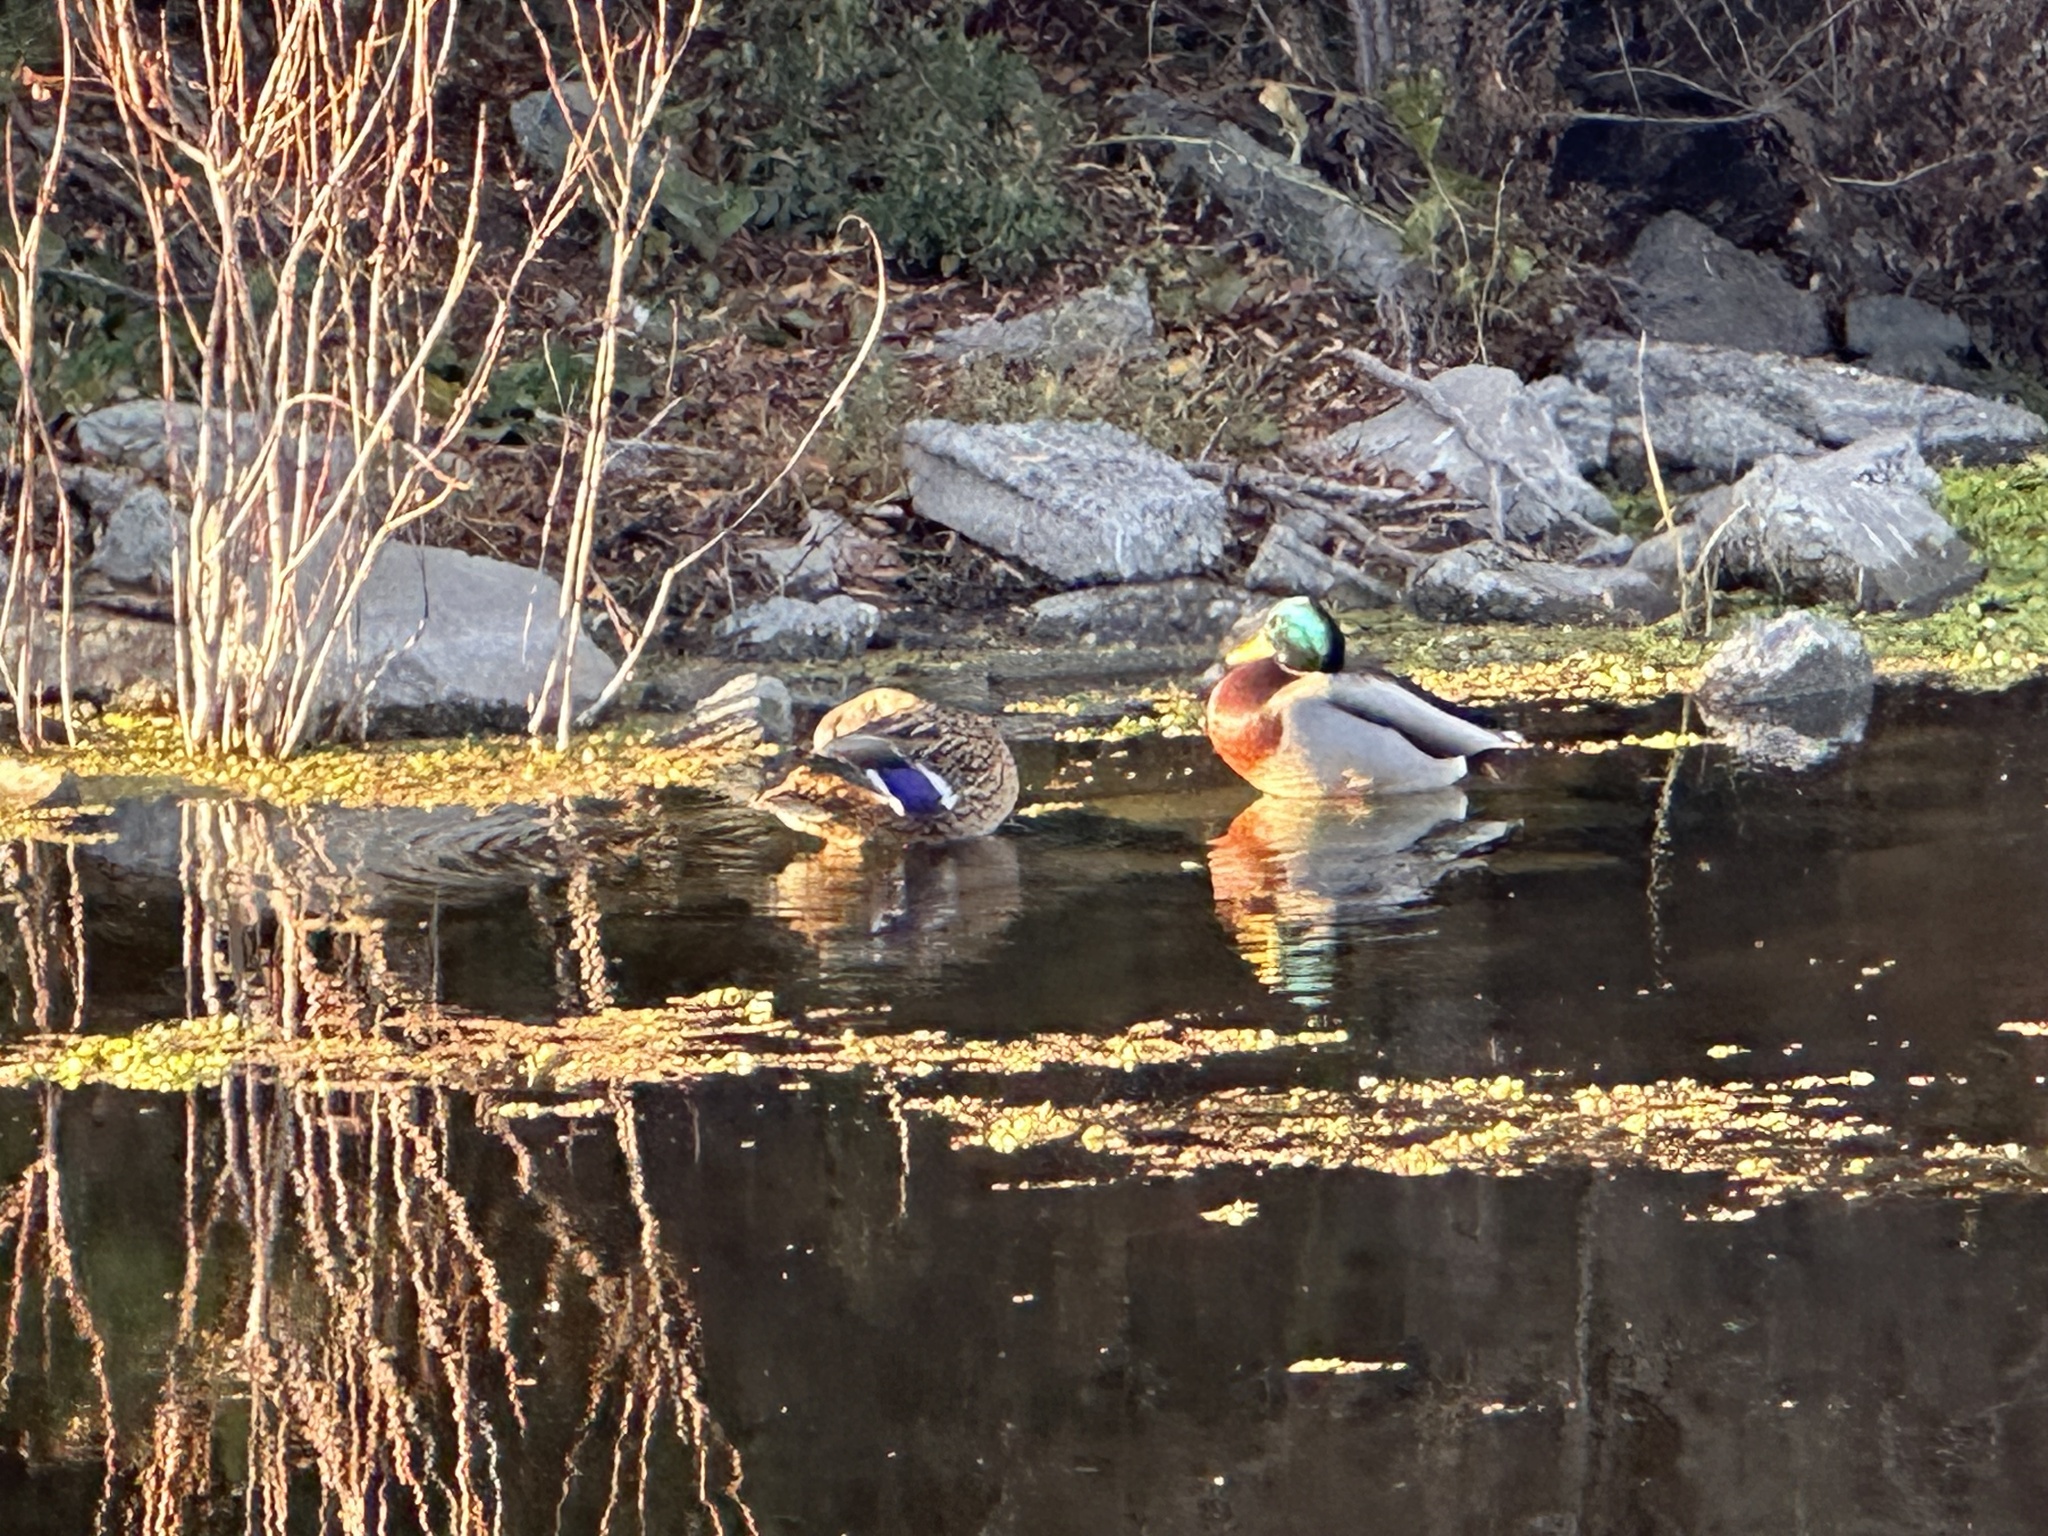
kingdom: Animalia
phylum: Chordata
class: Aves
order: Anseriformes
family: Anatidae
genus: Anas
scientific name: Anas platyrhynchos
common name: Mallard
